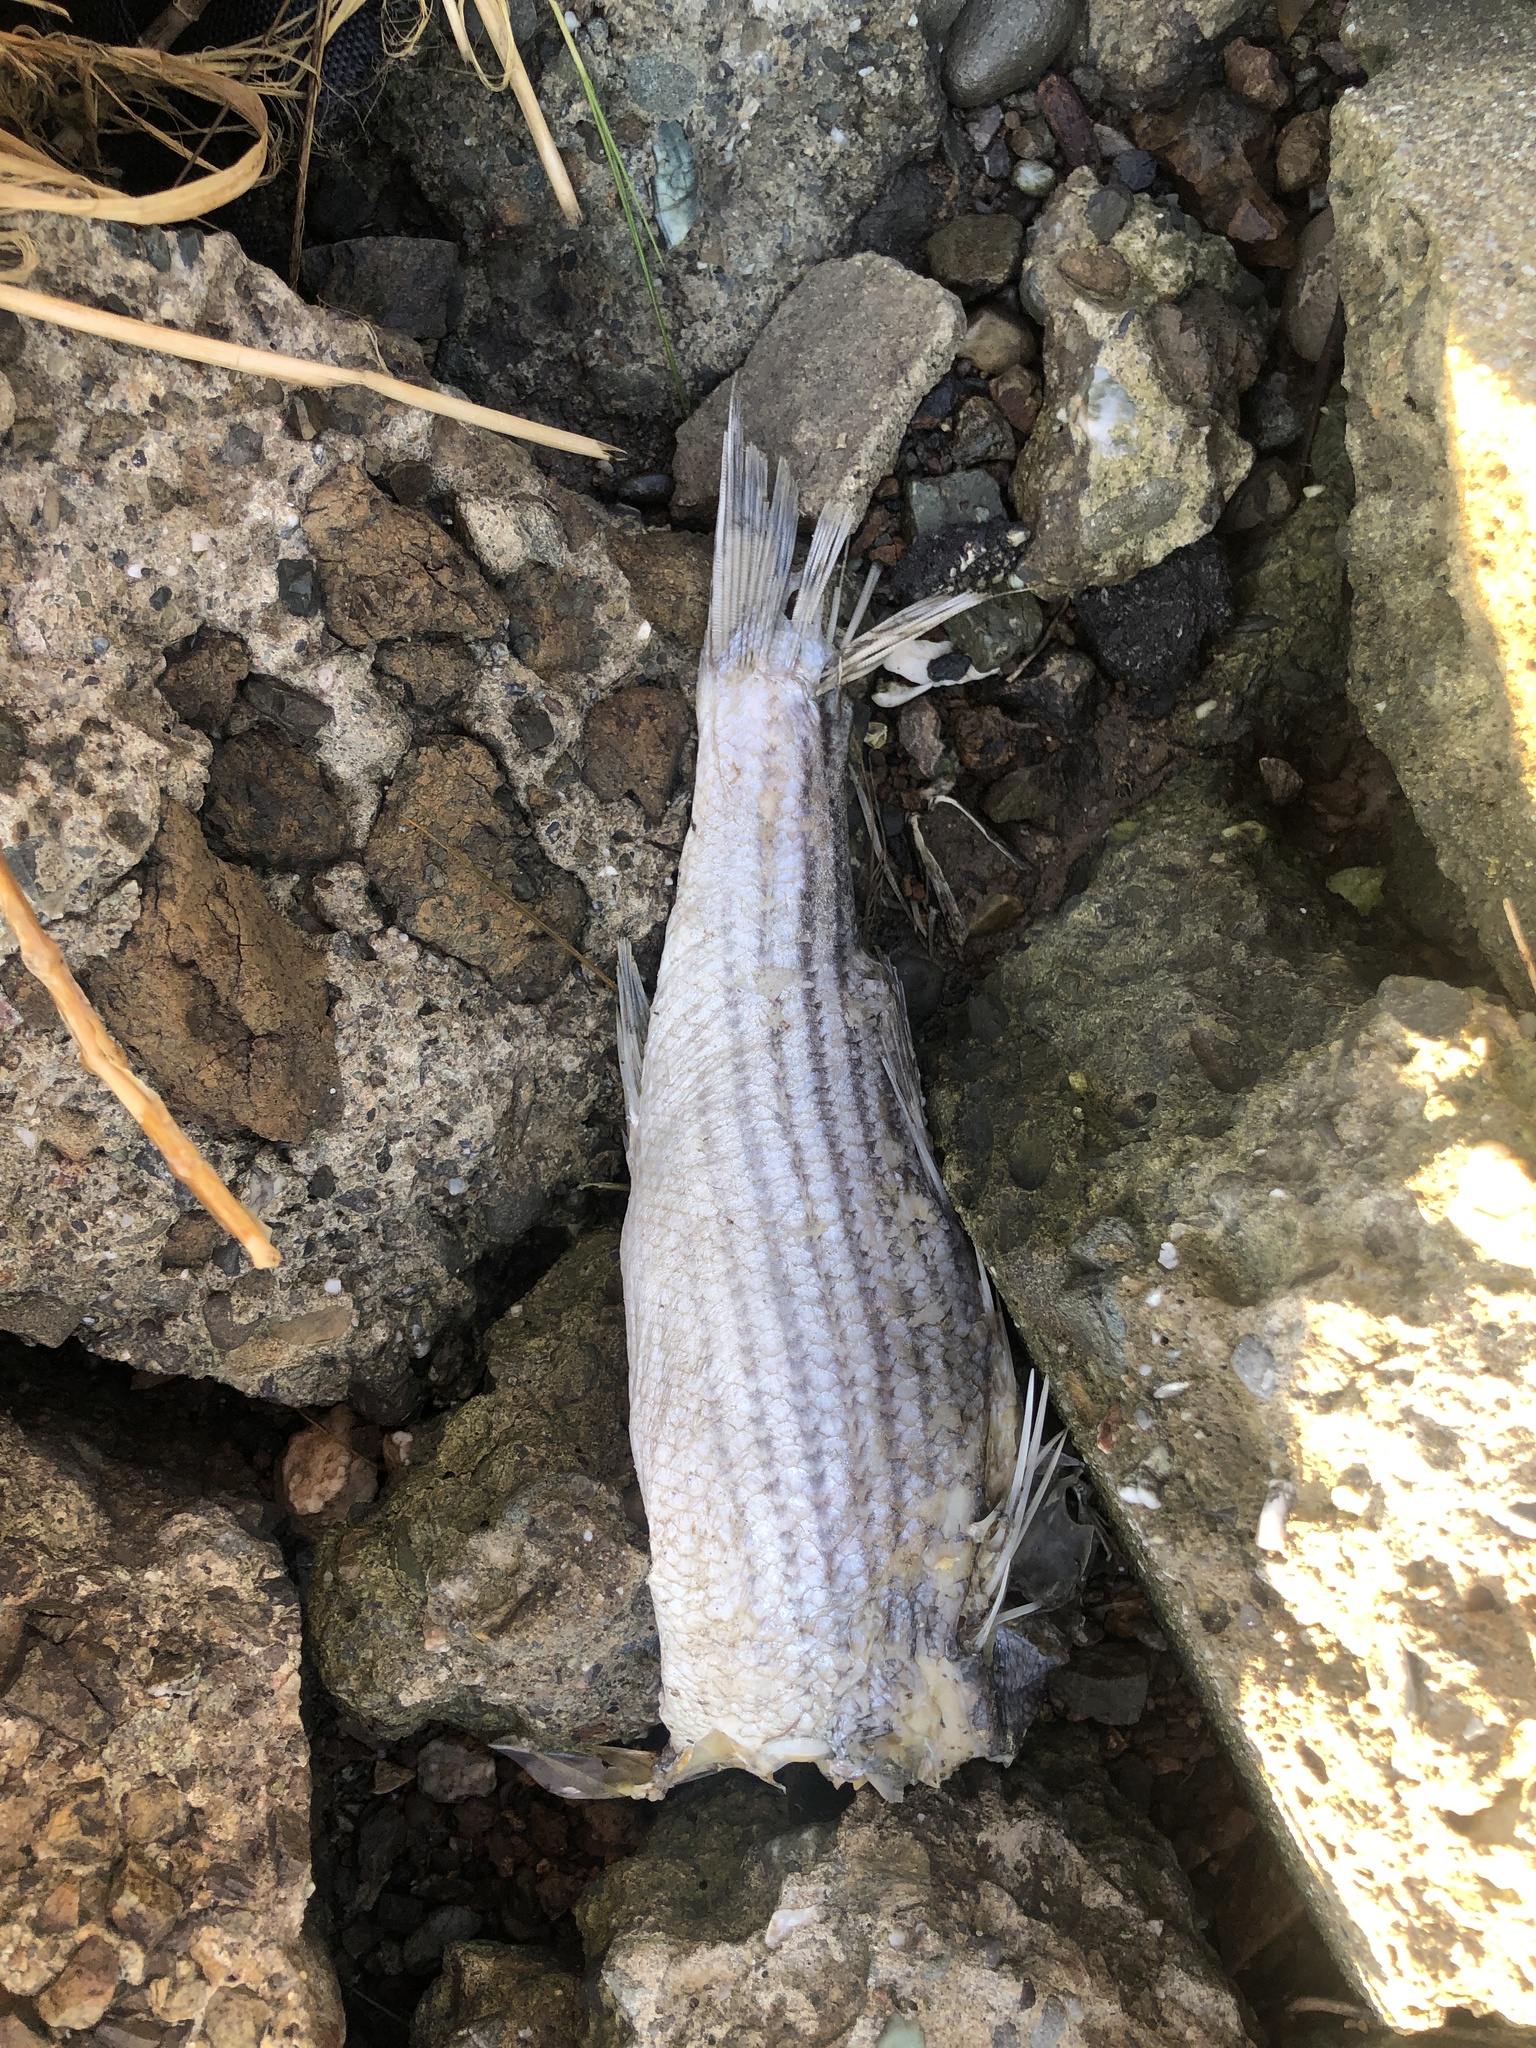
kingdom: Animalia
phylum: Chordata
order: Perciformes
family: Moronidae
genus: Morone
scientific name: Morone saxatilis
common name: Striped bass
